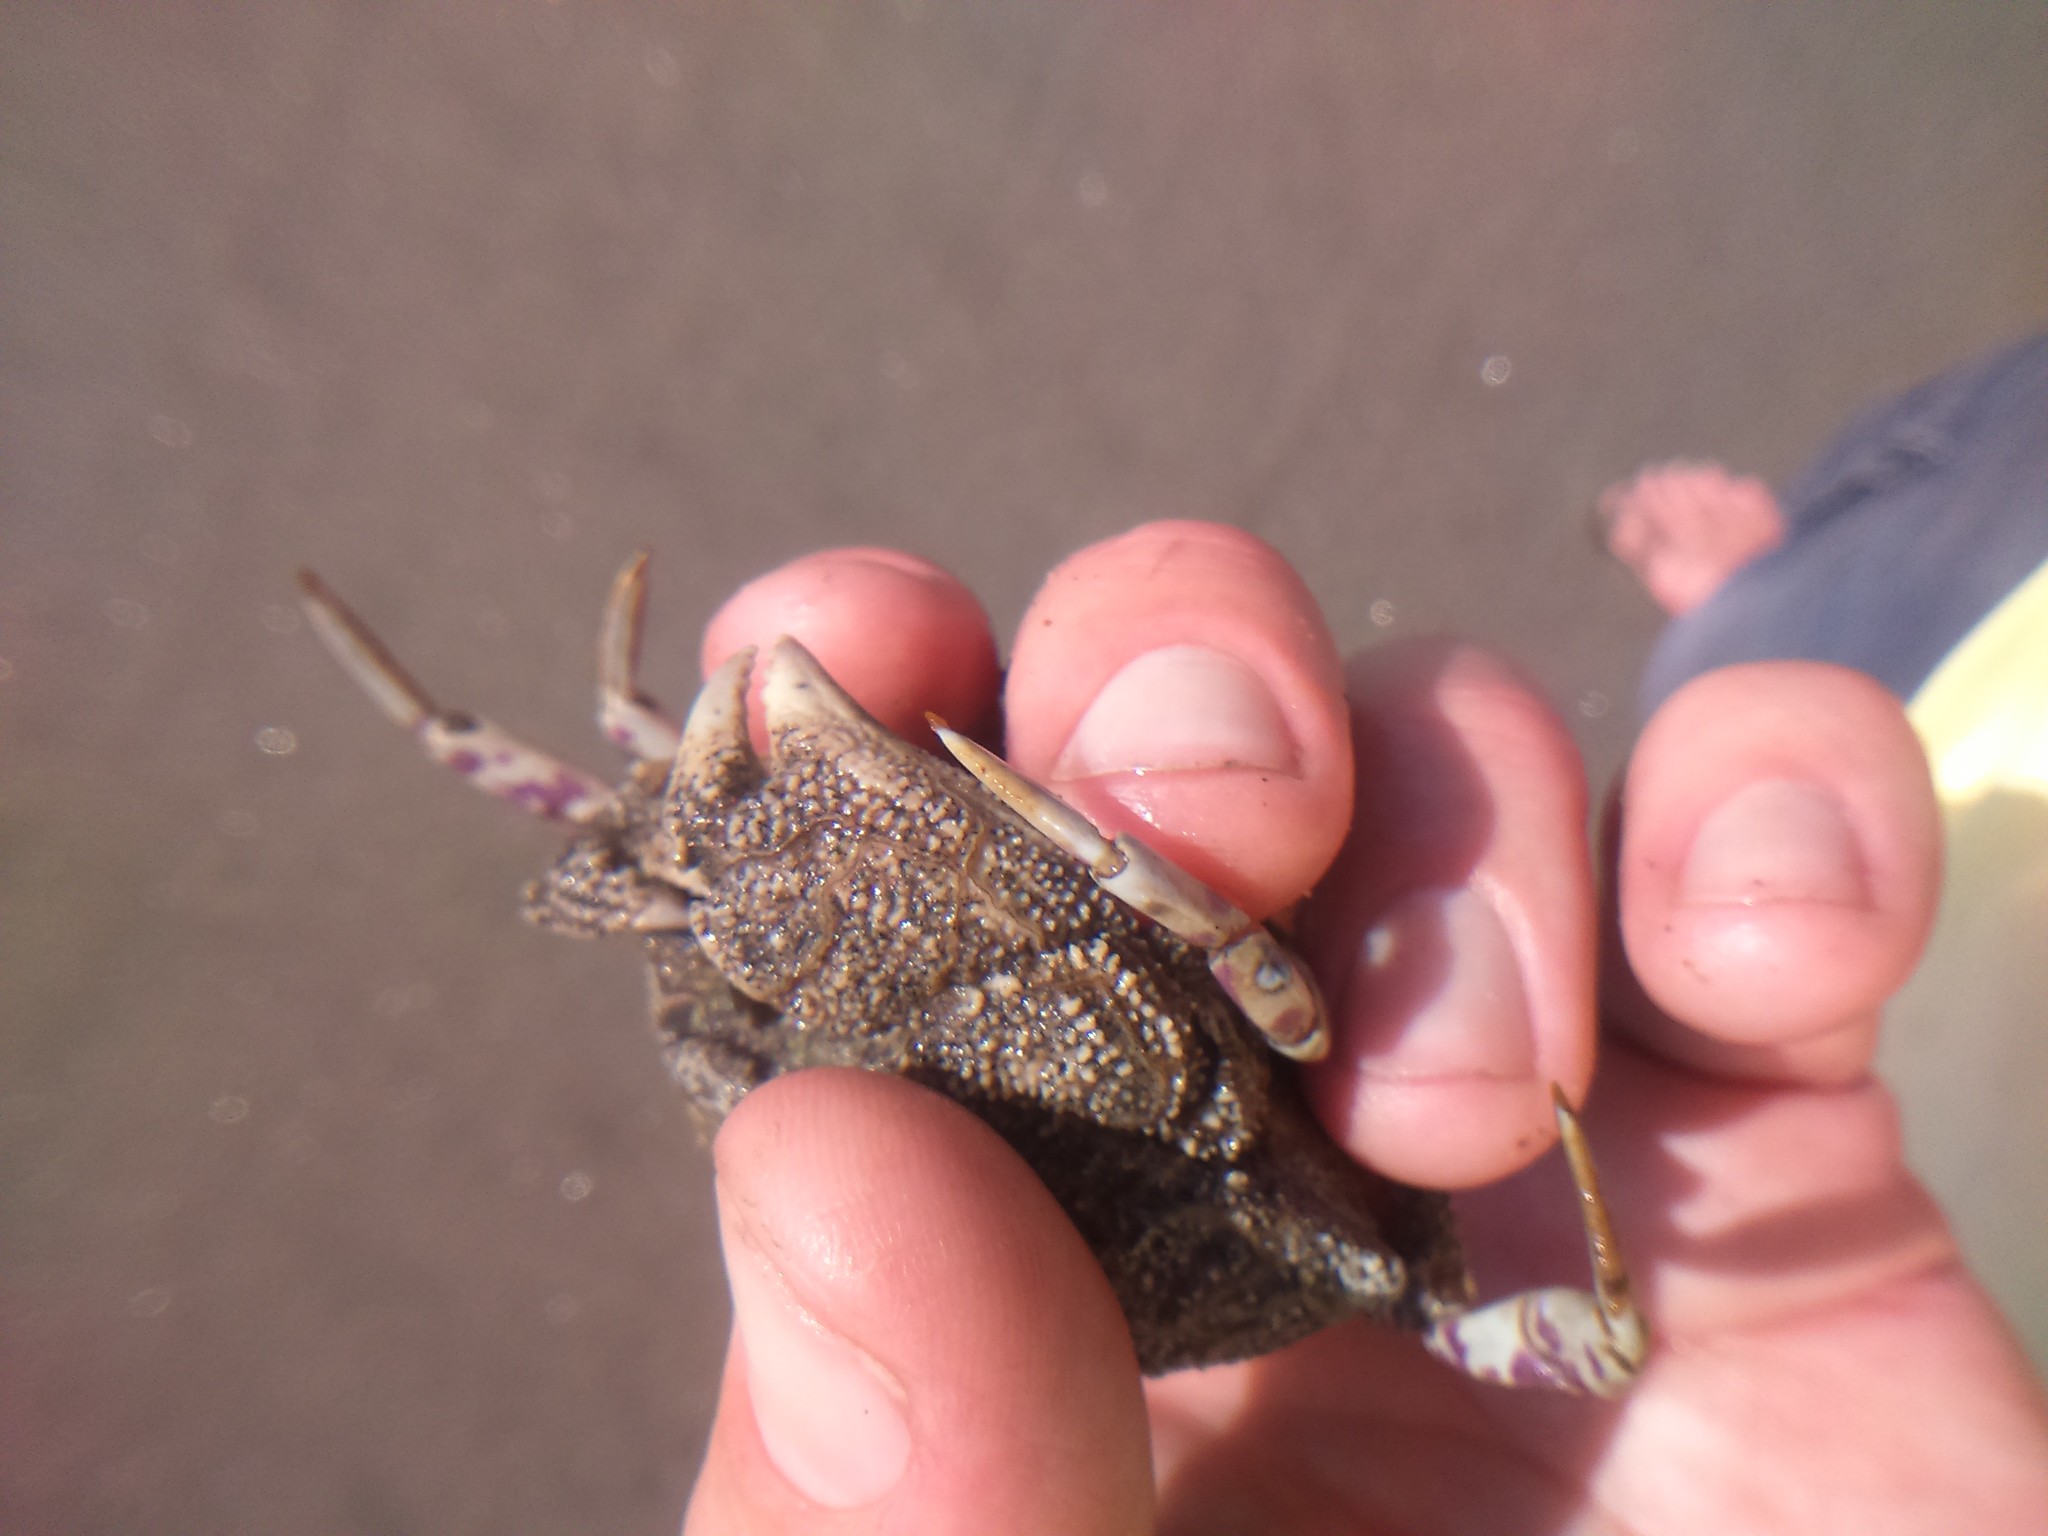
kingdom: Animalia
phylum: Arthropoda
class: Malacostraca
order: Decapoda
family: Aethridae
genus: Hepatus
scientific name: Hepatus chiliensis
